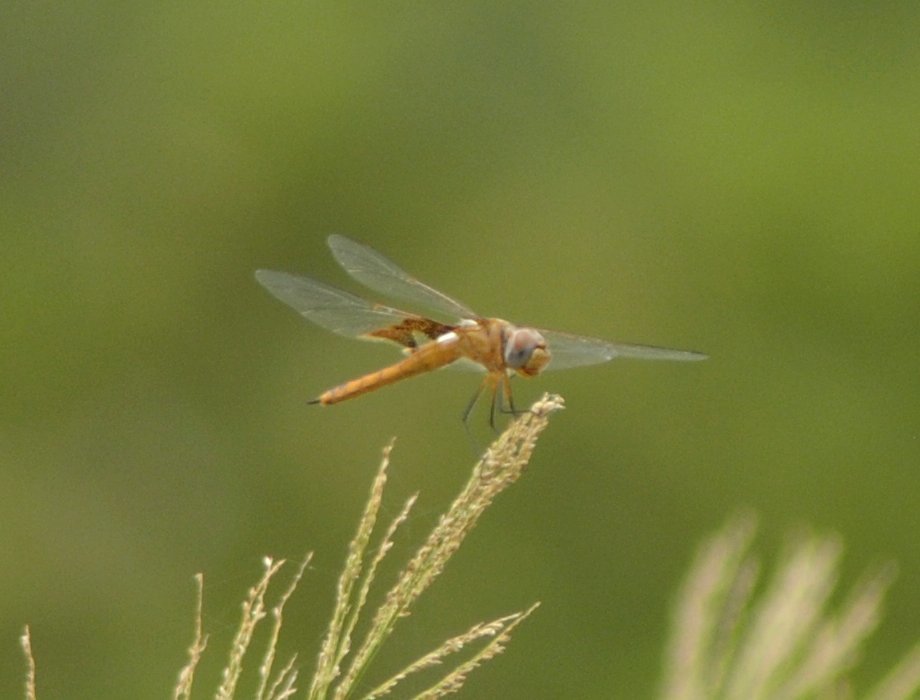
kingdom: Animalia
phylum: Arthropoda
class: Insecta
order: Odonata
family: Libellulidae
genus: Tramea
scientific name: Tramea onusta
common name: Red saddlebags
